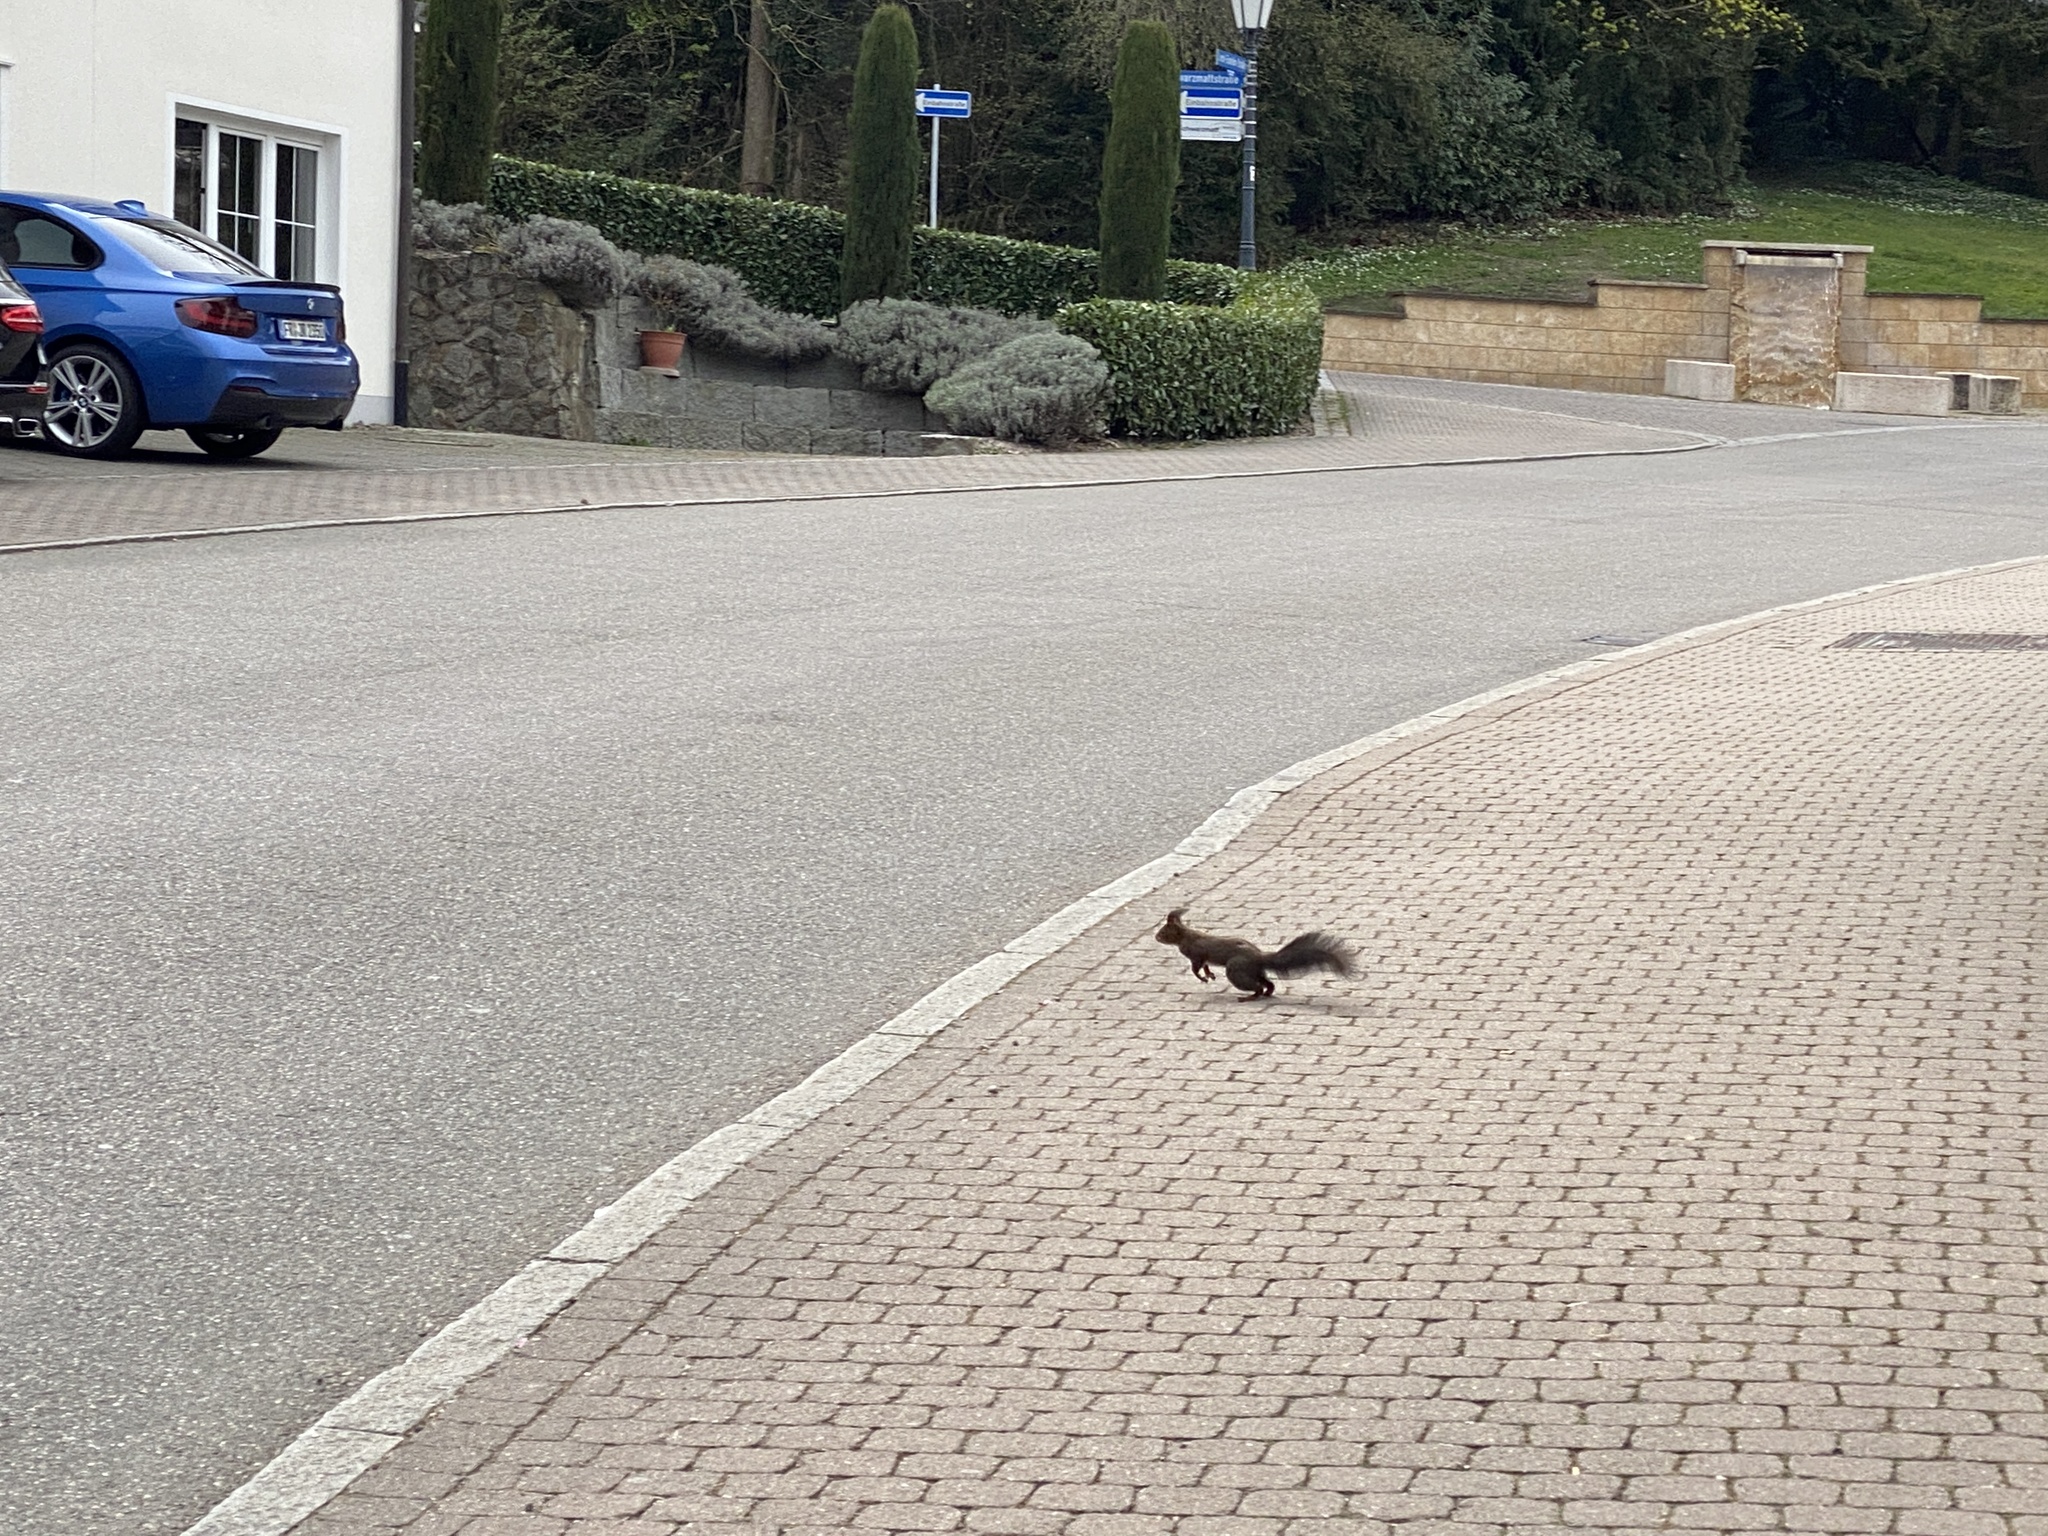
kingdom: Animalia
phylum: Chordata
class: Mammalia
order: Rodentia
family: Sciuridae
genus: Sciurus
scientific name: Sciurus vulgaris
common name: Eurasian red squirrel
